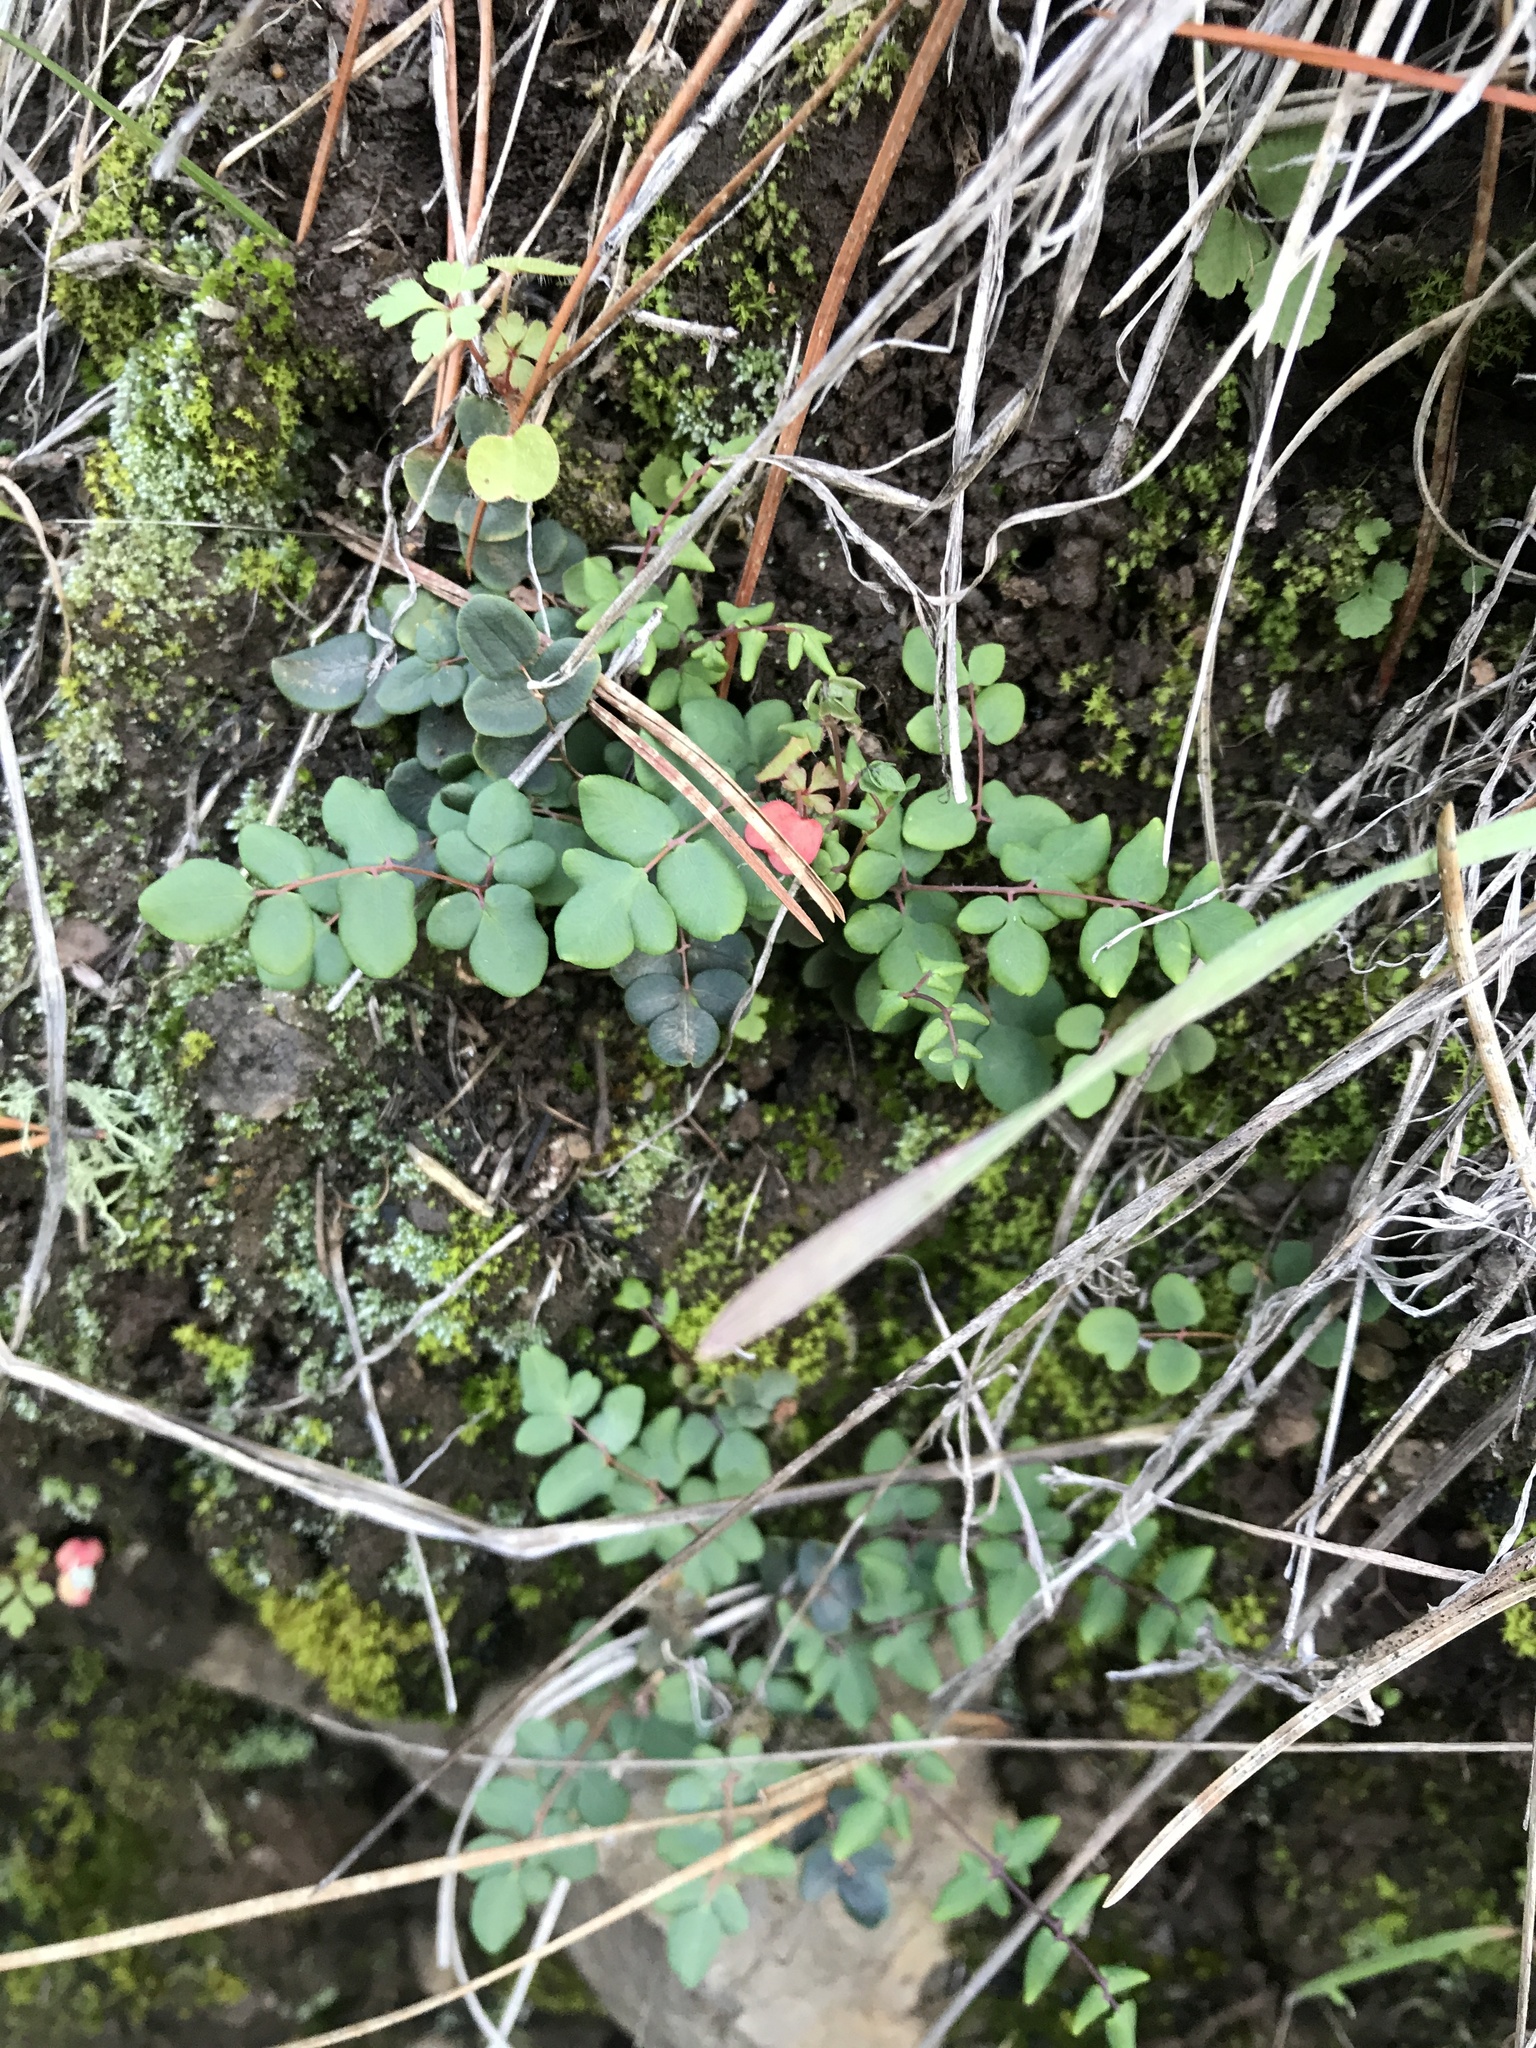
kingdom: Plantae
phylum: Tracheophyta
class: Polypodiopsida
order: Polypodiales
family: Pteridaceae
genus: Pellaea
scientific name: Pellaea andromedifolia
